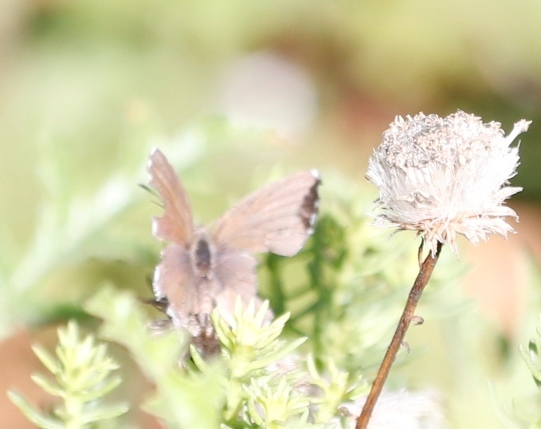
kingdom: Animalia
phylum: Arthropoda
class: Insecta
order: Lepidoptera
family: Lycaenidae
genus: Cacyreus
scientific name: Cacyreus
